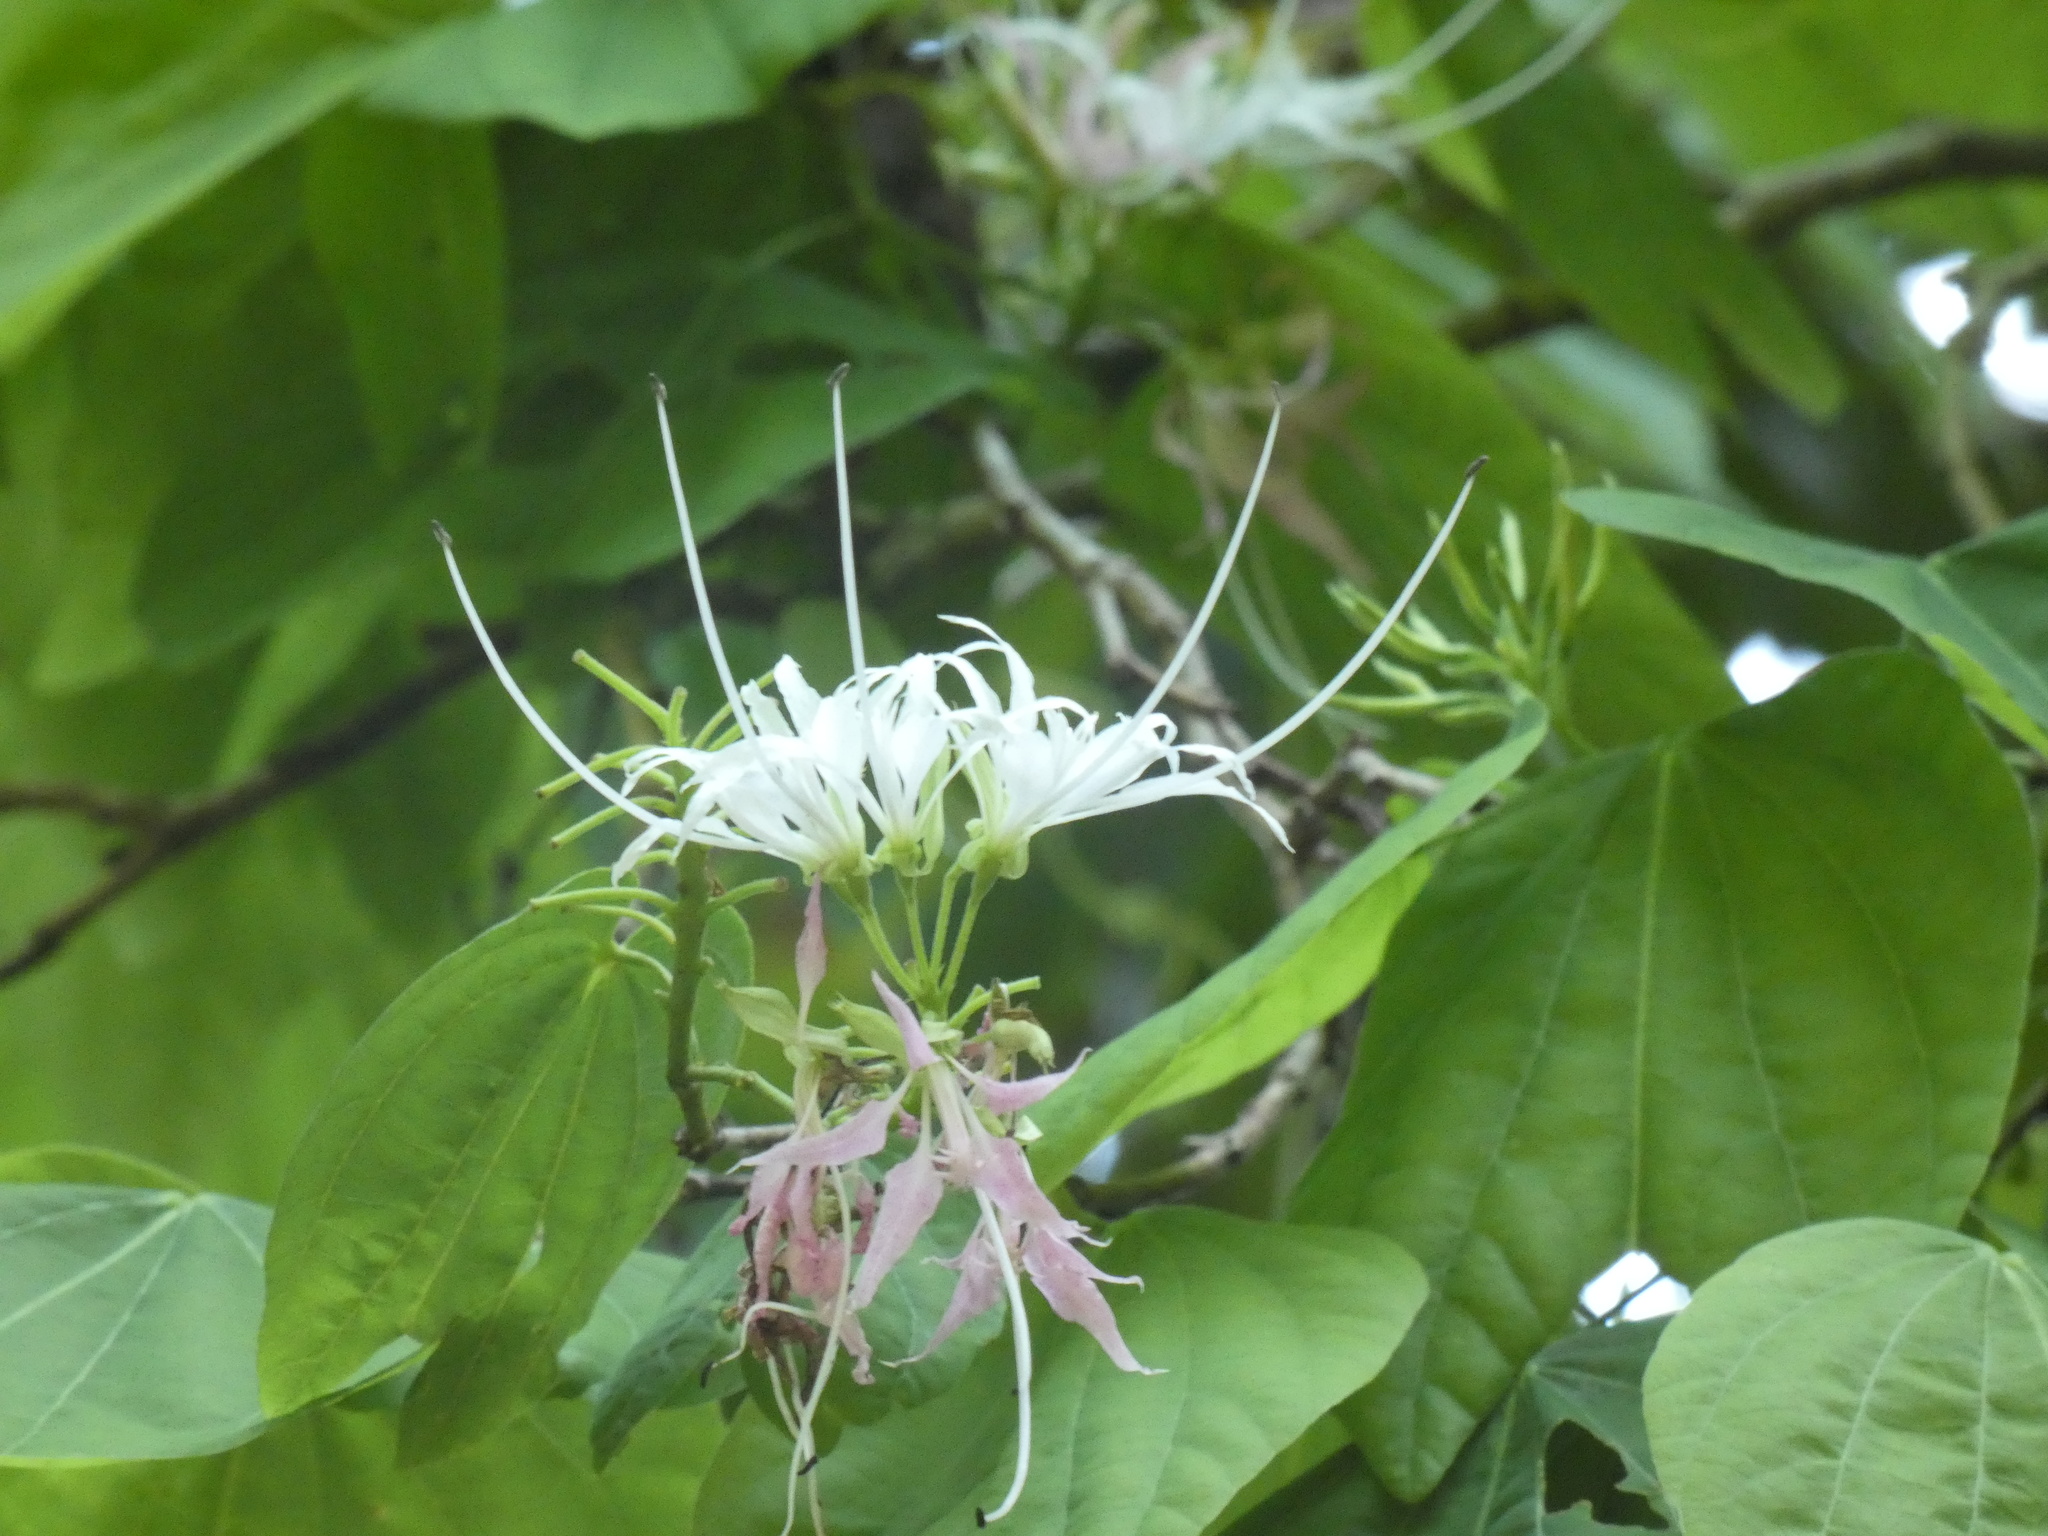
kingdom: Plantae
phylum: Tracheophyta
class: Magnoliopsida
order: Fabales
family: Fabaceae
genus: Bauhinia
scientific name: Bauhinia divaricata
